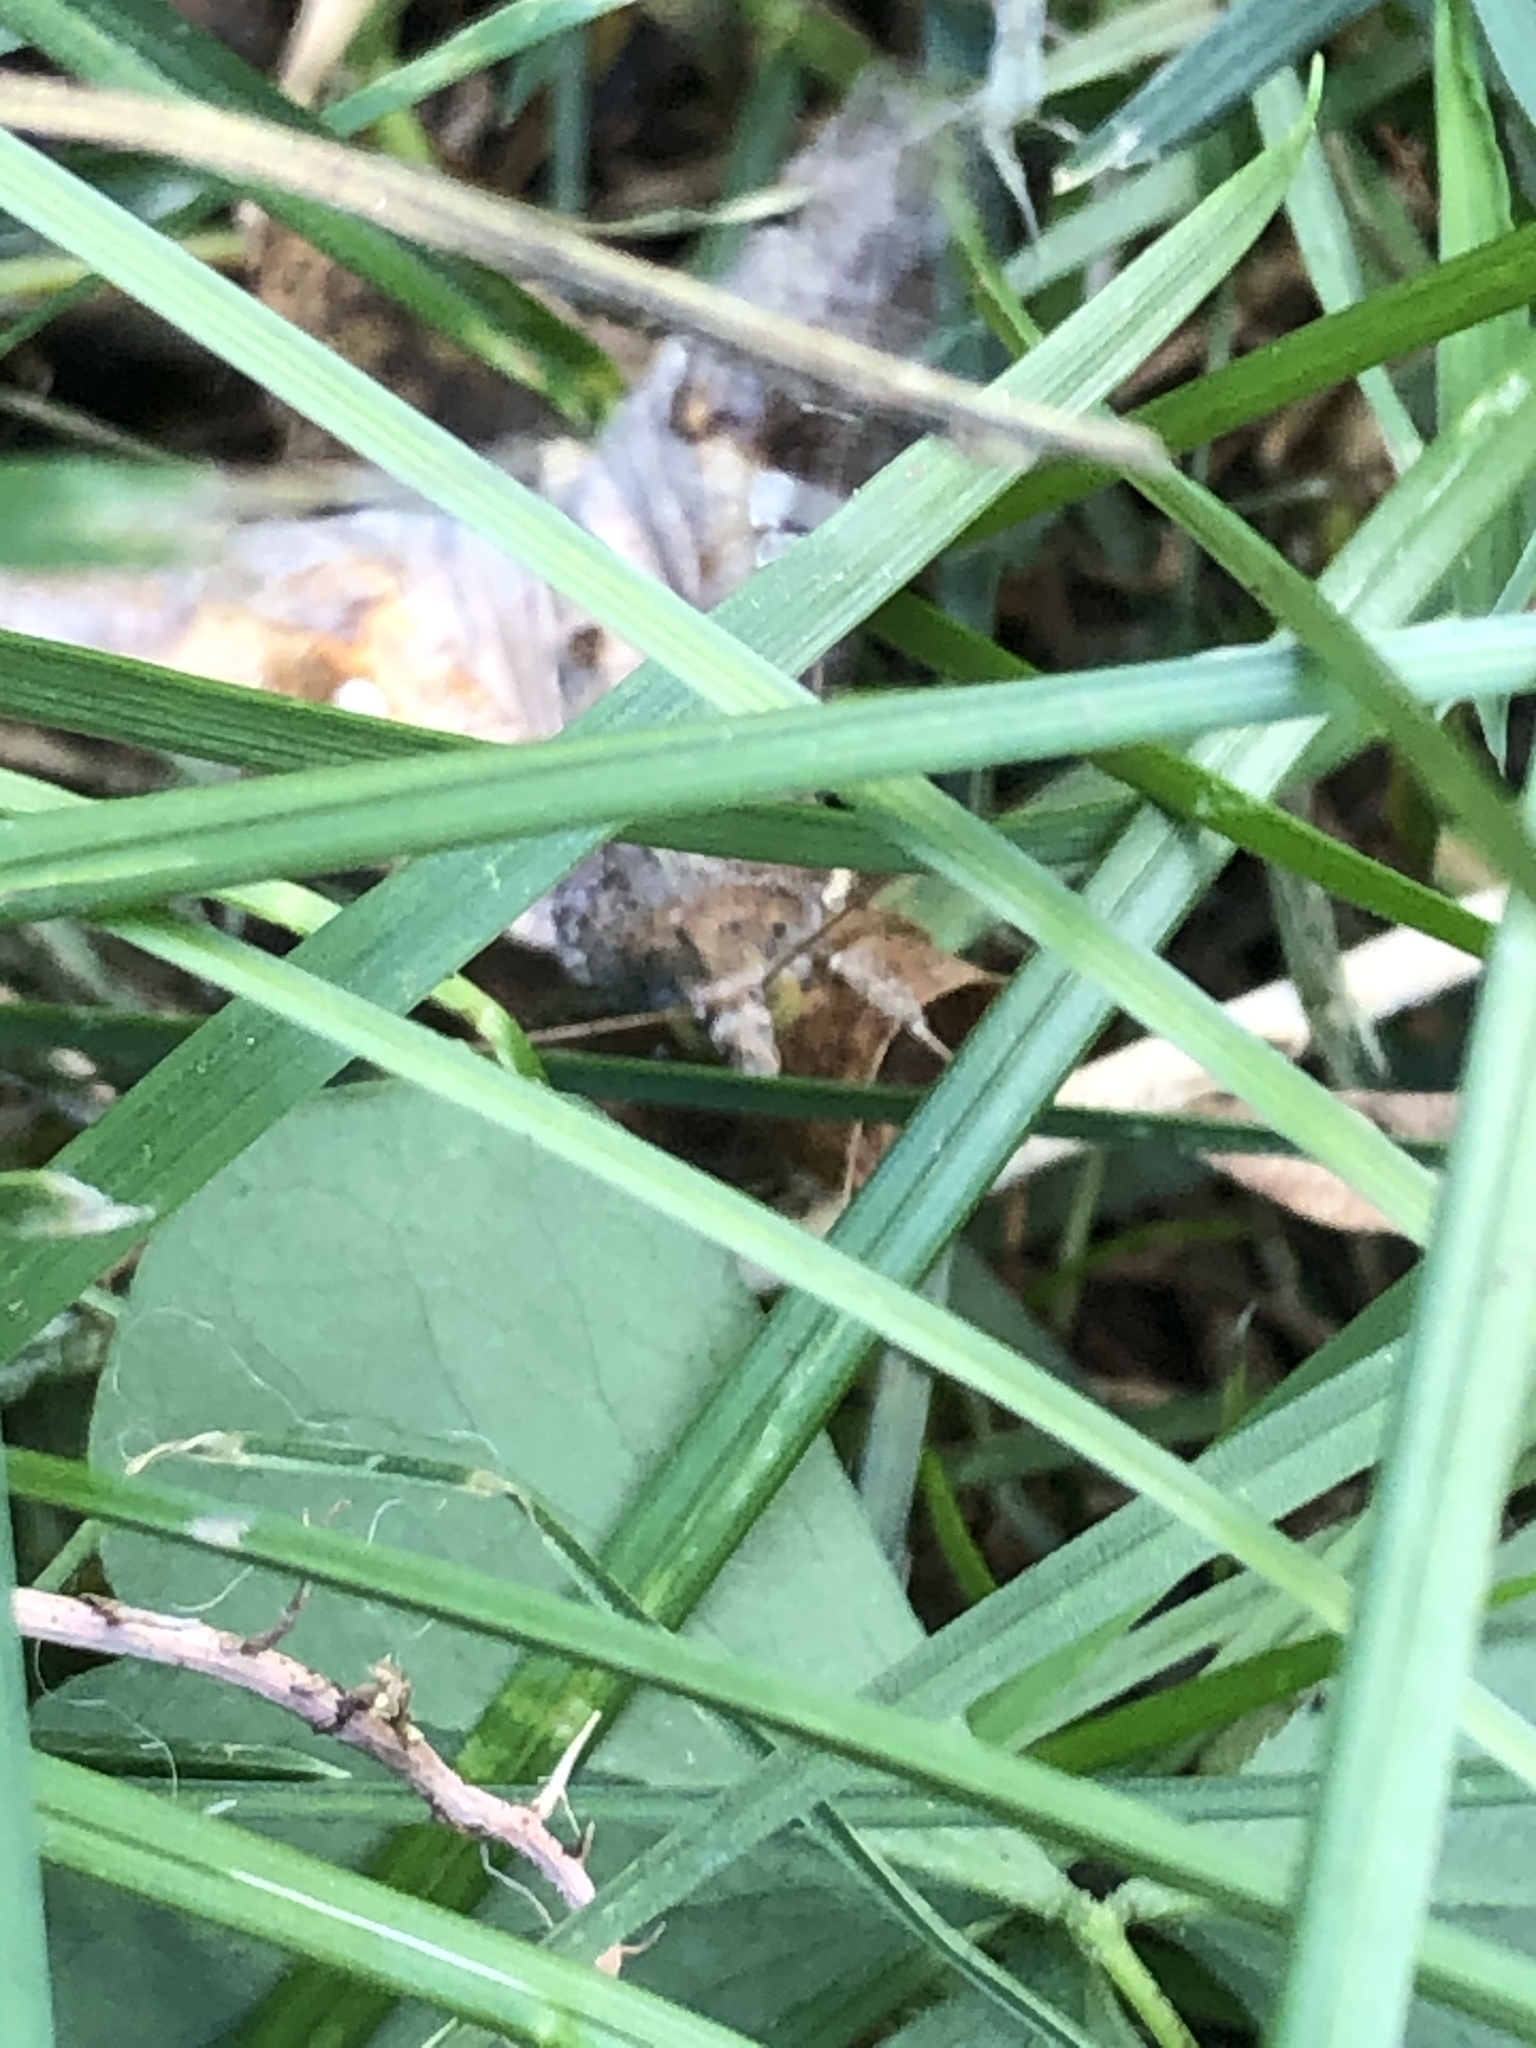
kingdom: Animalia
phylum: Arthropoda
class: Insecta
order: Lepidoptera
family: Noctuidae
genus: Chrysodeixis
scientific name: Chrysodeixis includens
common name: Cutworm moth
